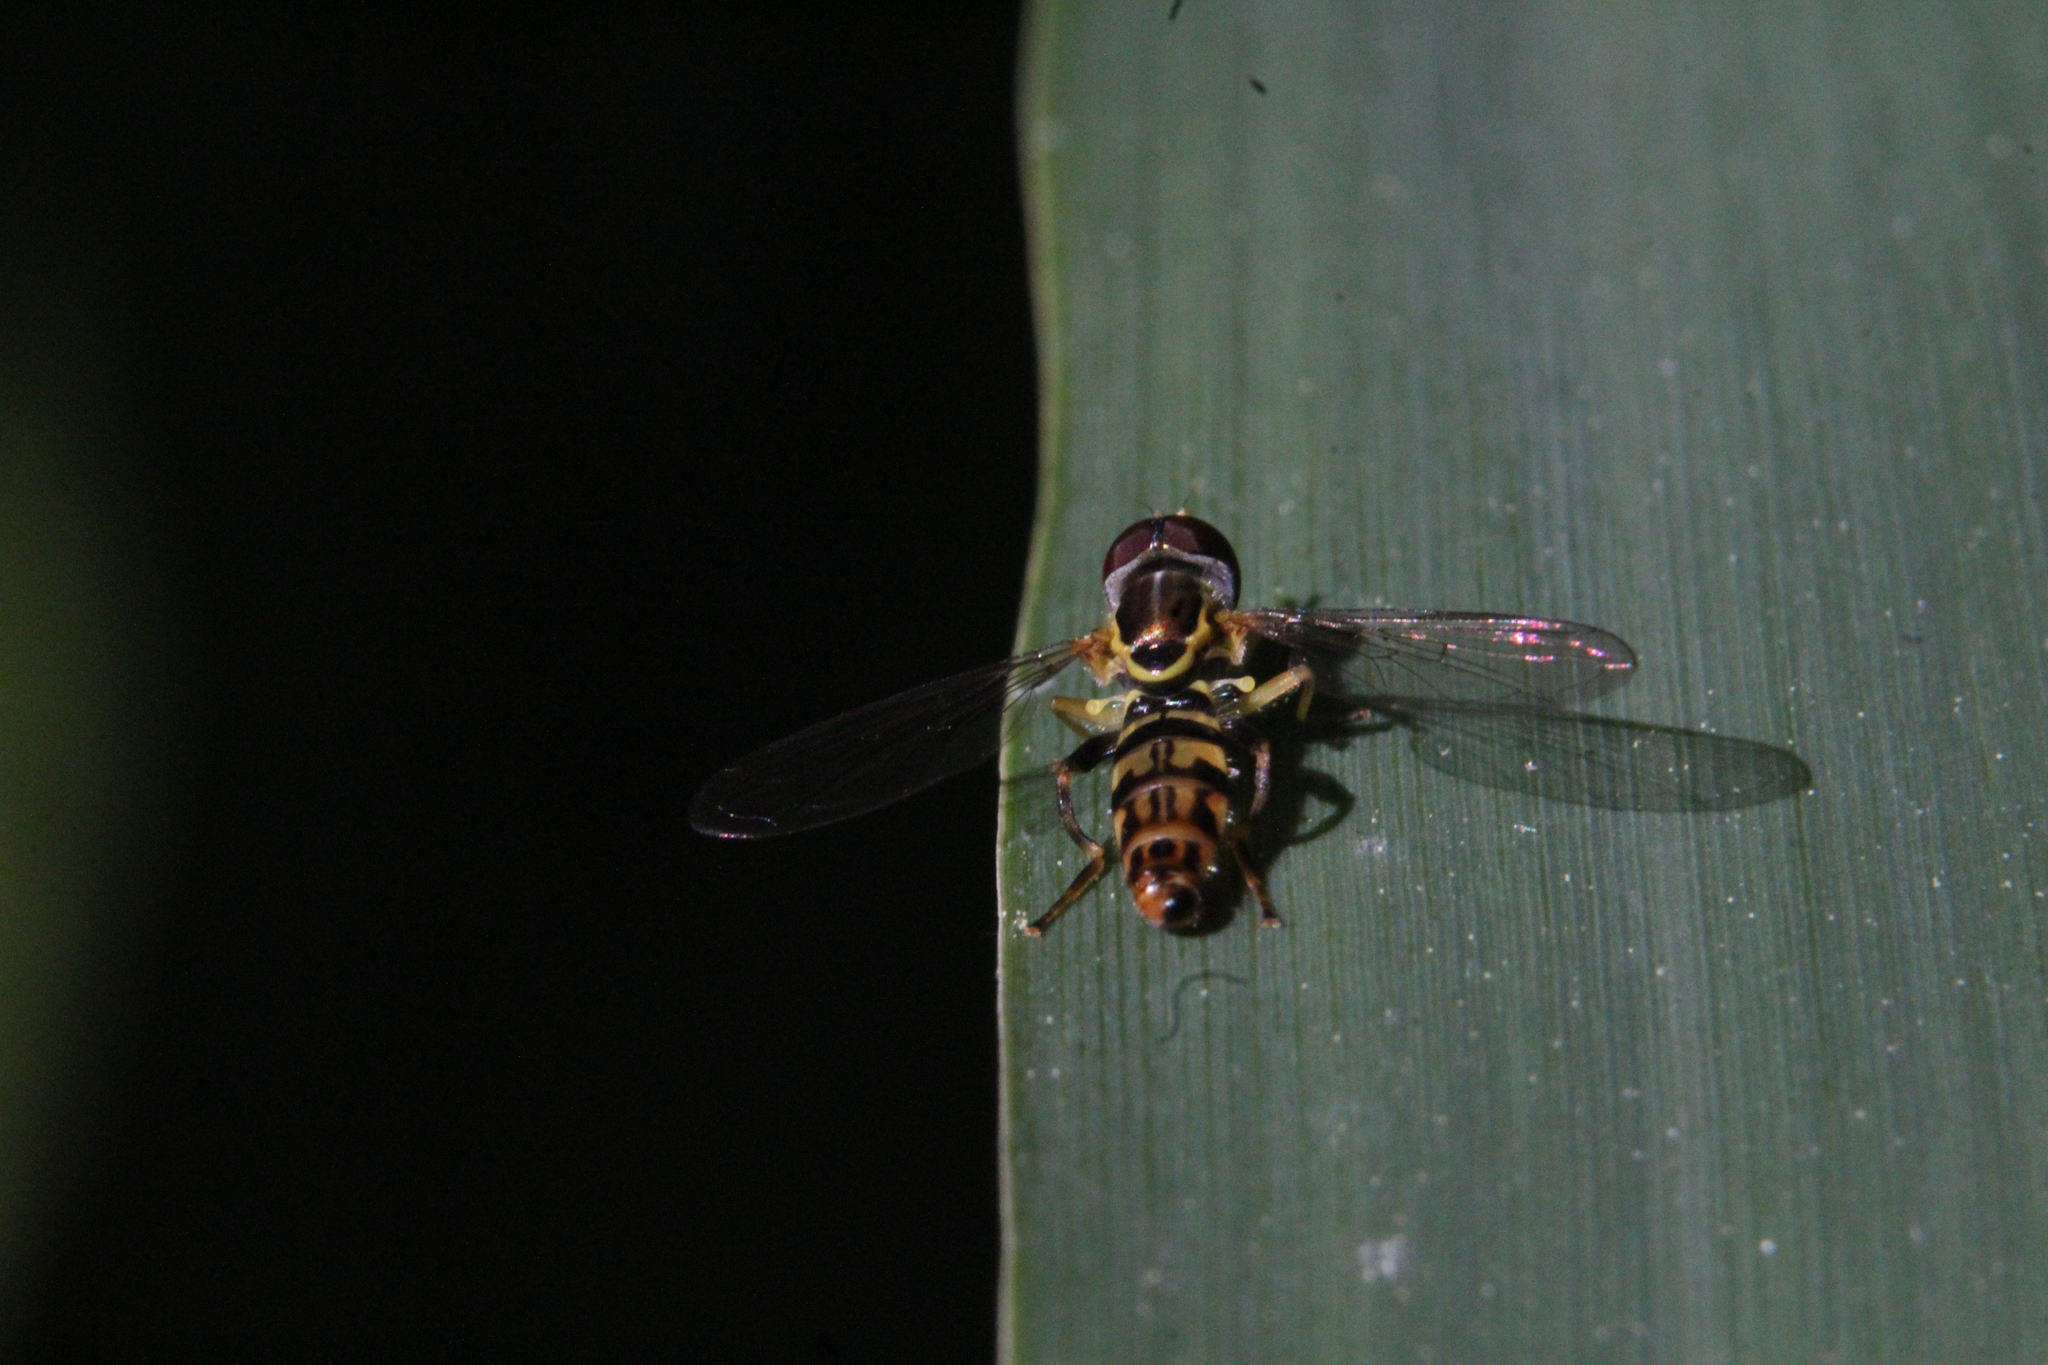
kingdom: Animalia
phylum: Arthropoda
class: Insecta
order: Diptera
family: Syrphidae
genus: Toxomerus
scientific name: Toxomerus geminatus
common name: Eastern calligrapher
